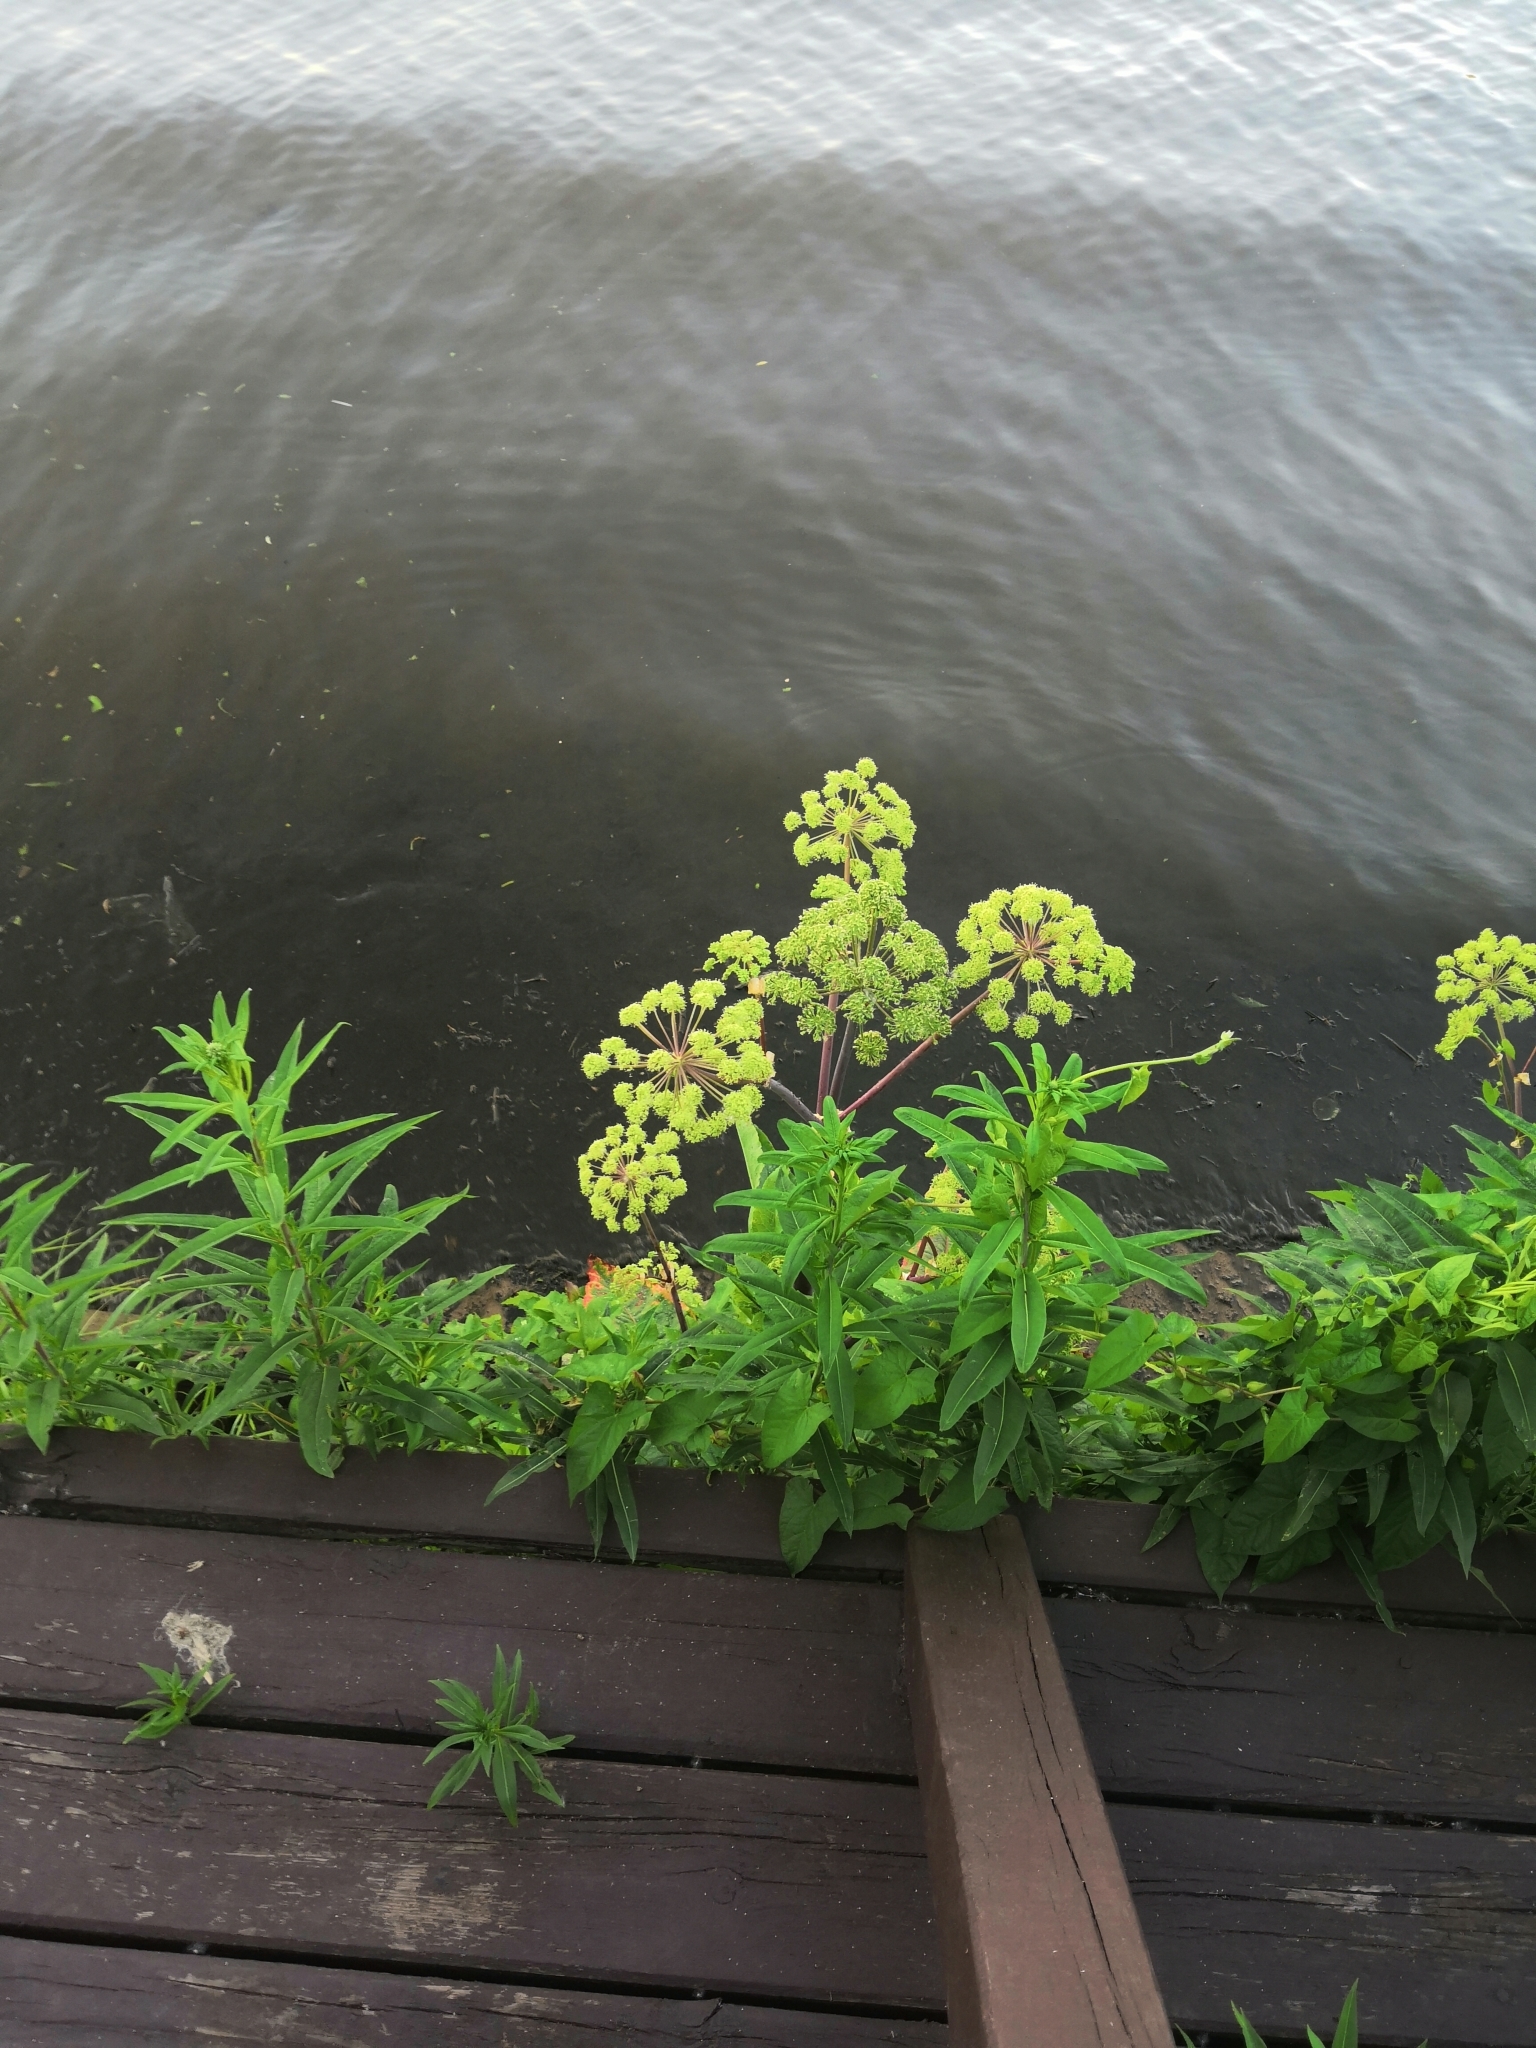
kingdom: Plantae
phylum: Tracheophyta
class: Magnoliopsida
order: Apiales
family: Apiaceae
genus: Angelica
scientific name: Angelica archangelica
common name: Garden angelica
